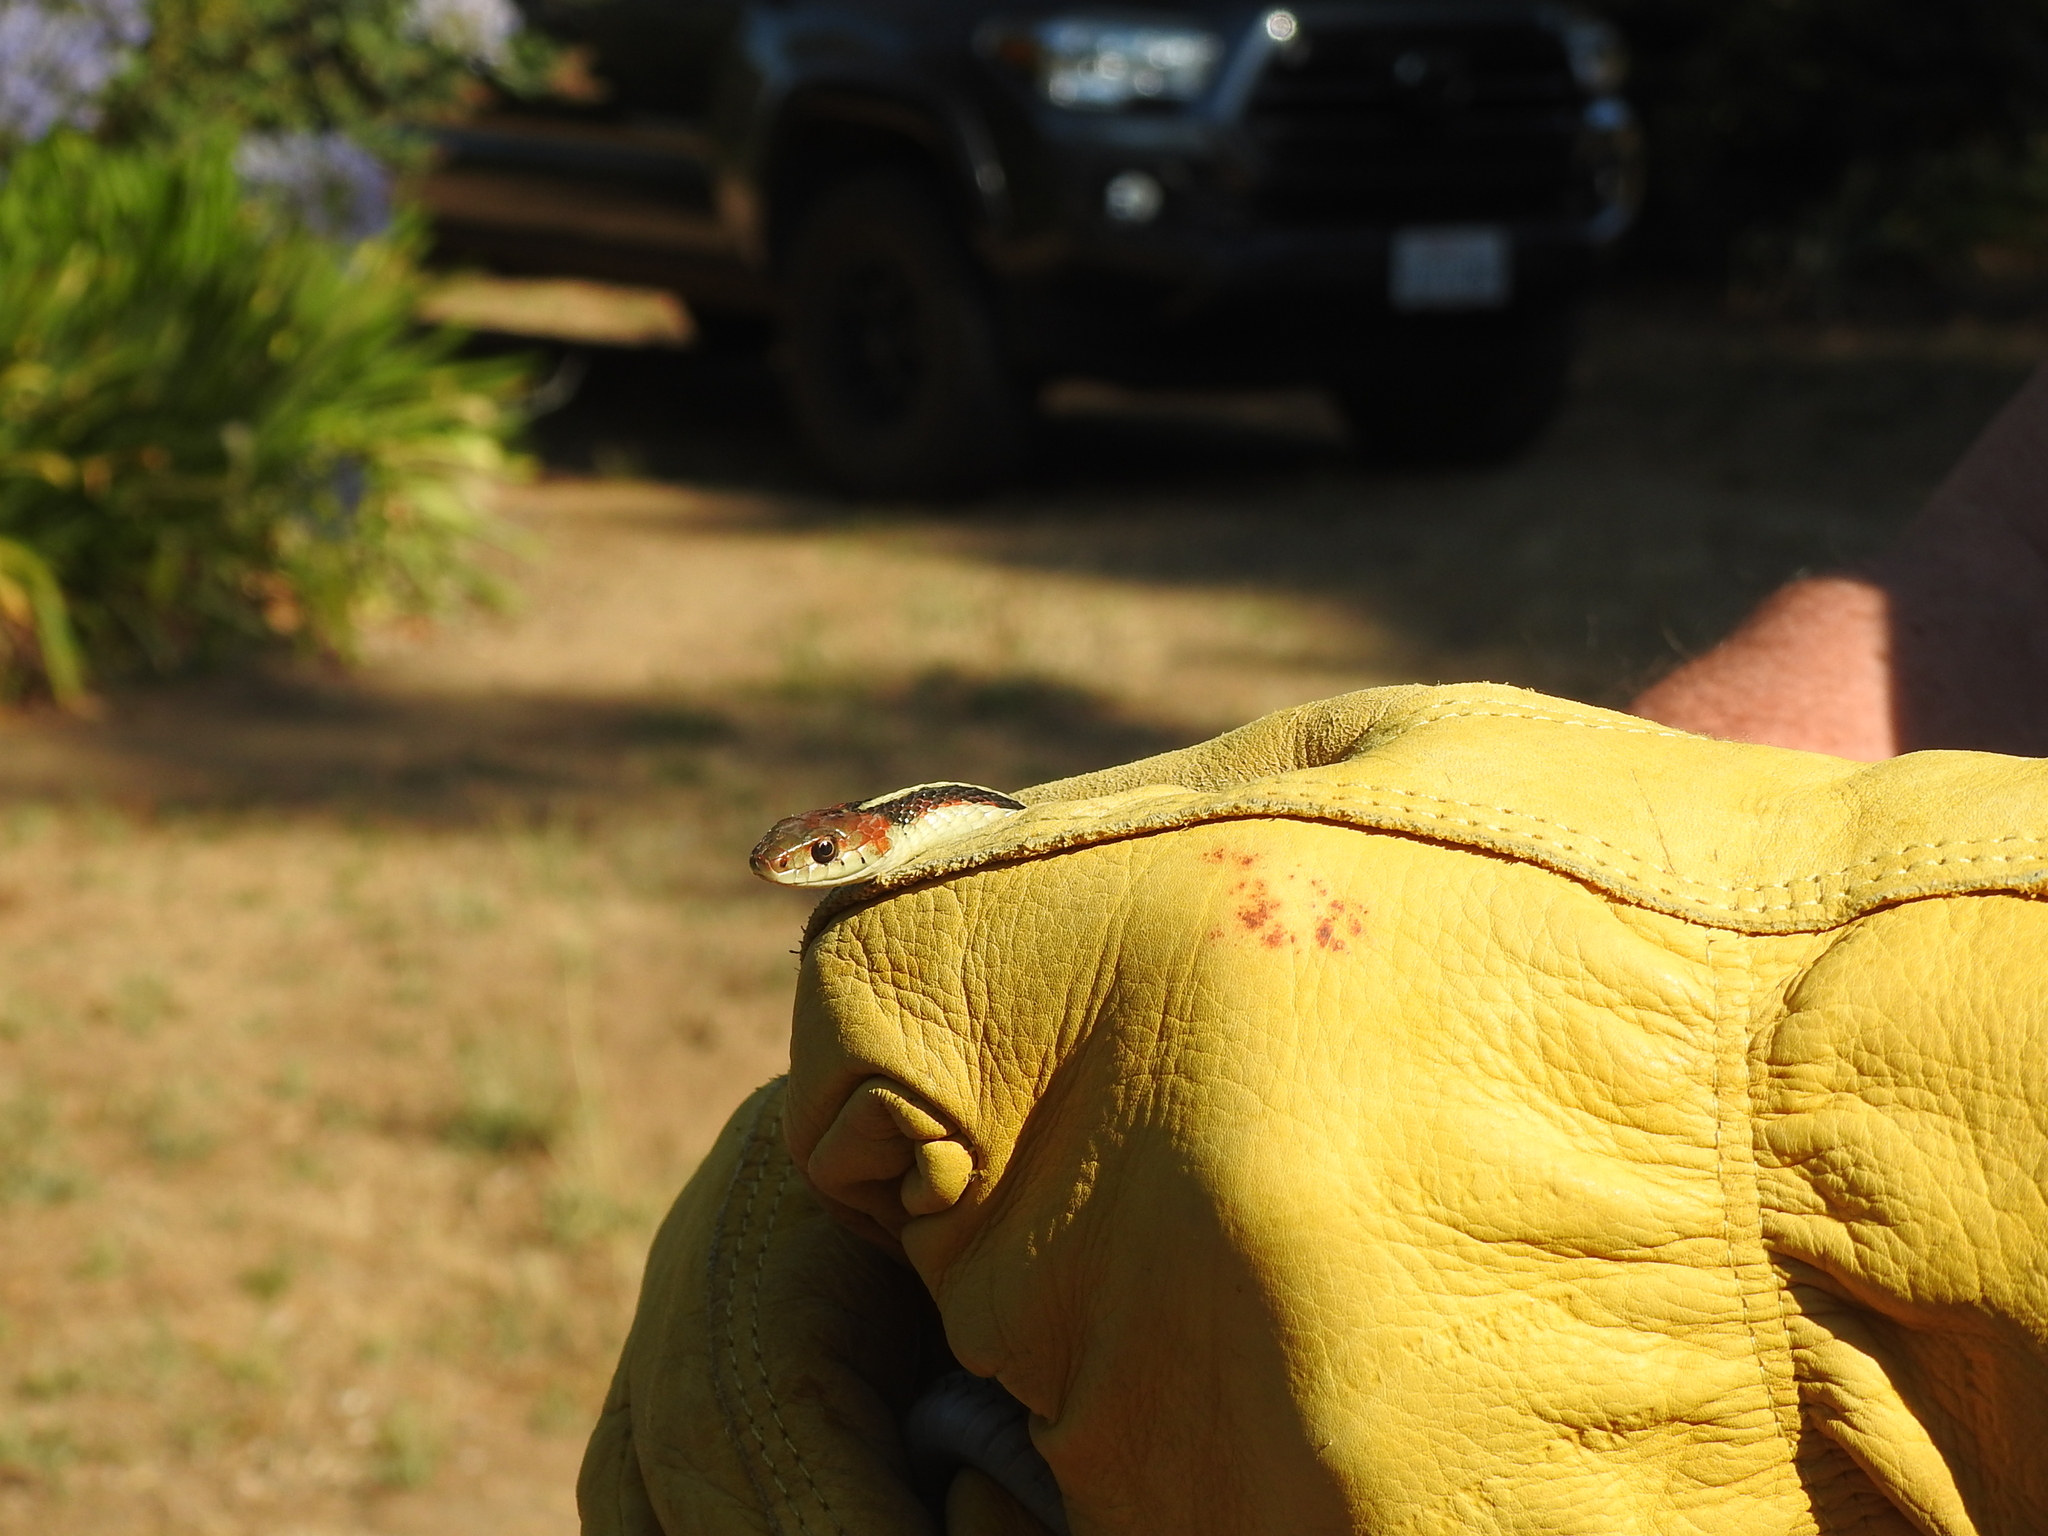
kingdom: Animalia
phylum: Chordata
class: Squamata
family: Colubridae
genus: Thamnophis
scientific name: Thamnophis sirtalis
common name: Common garter snake
